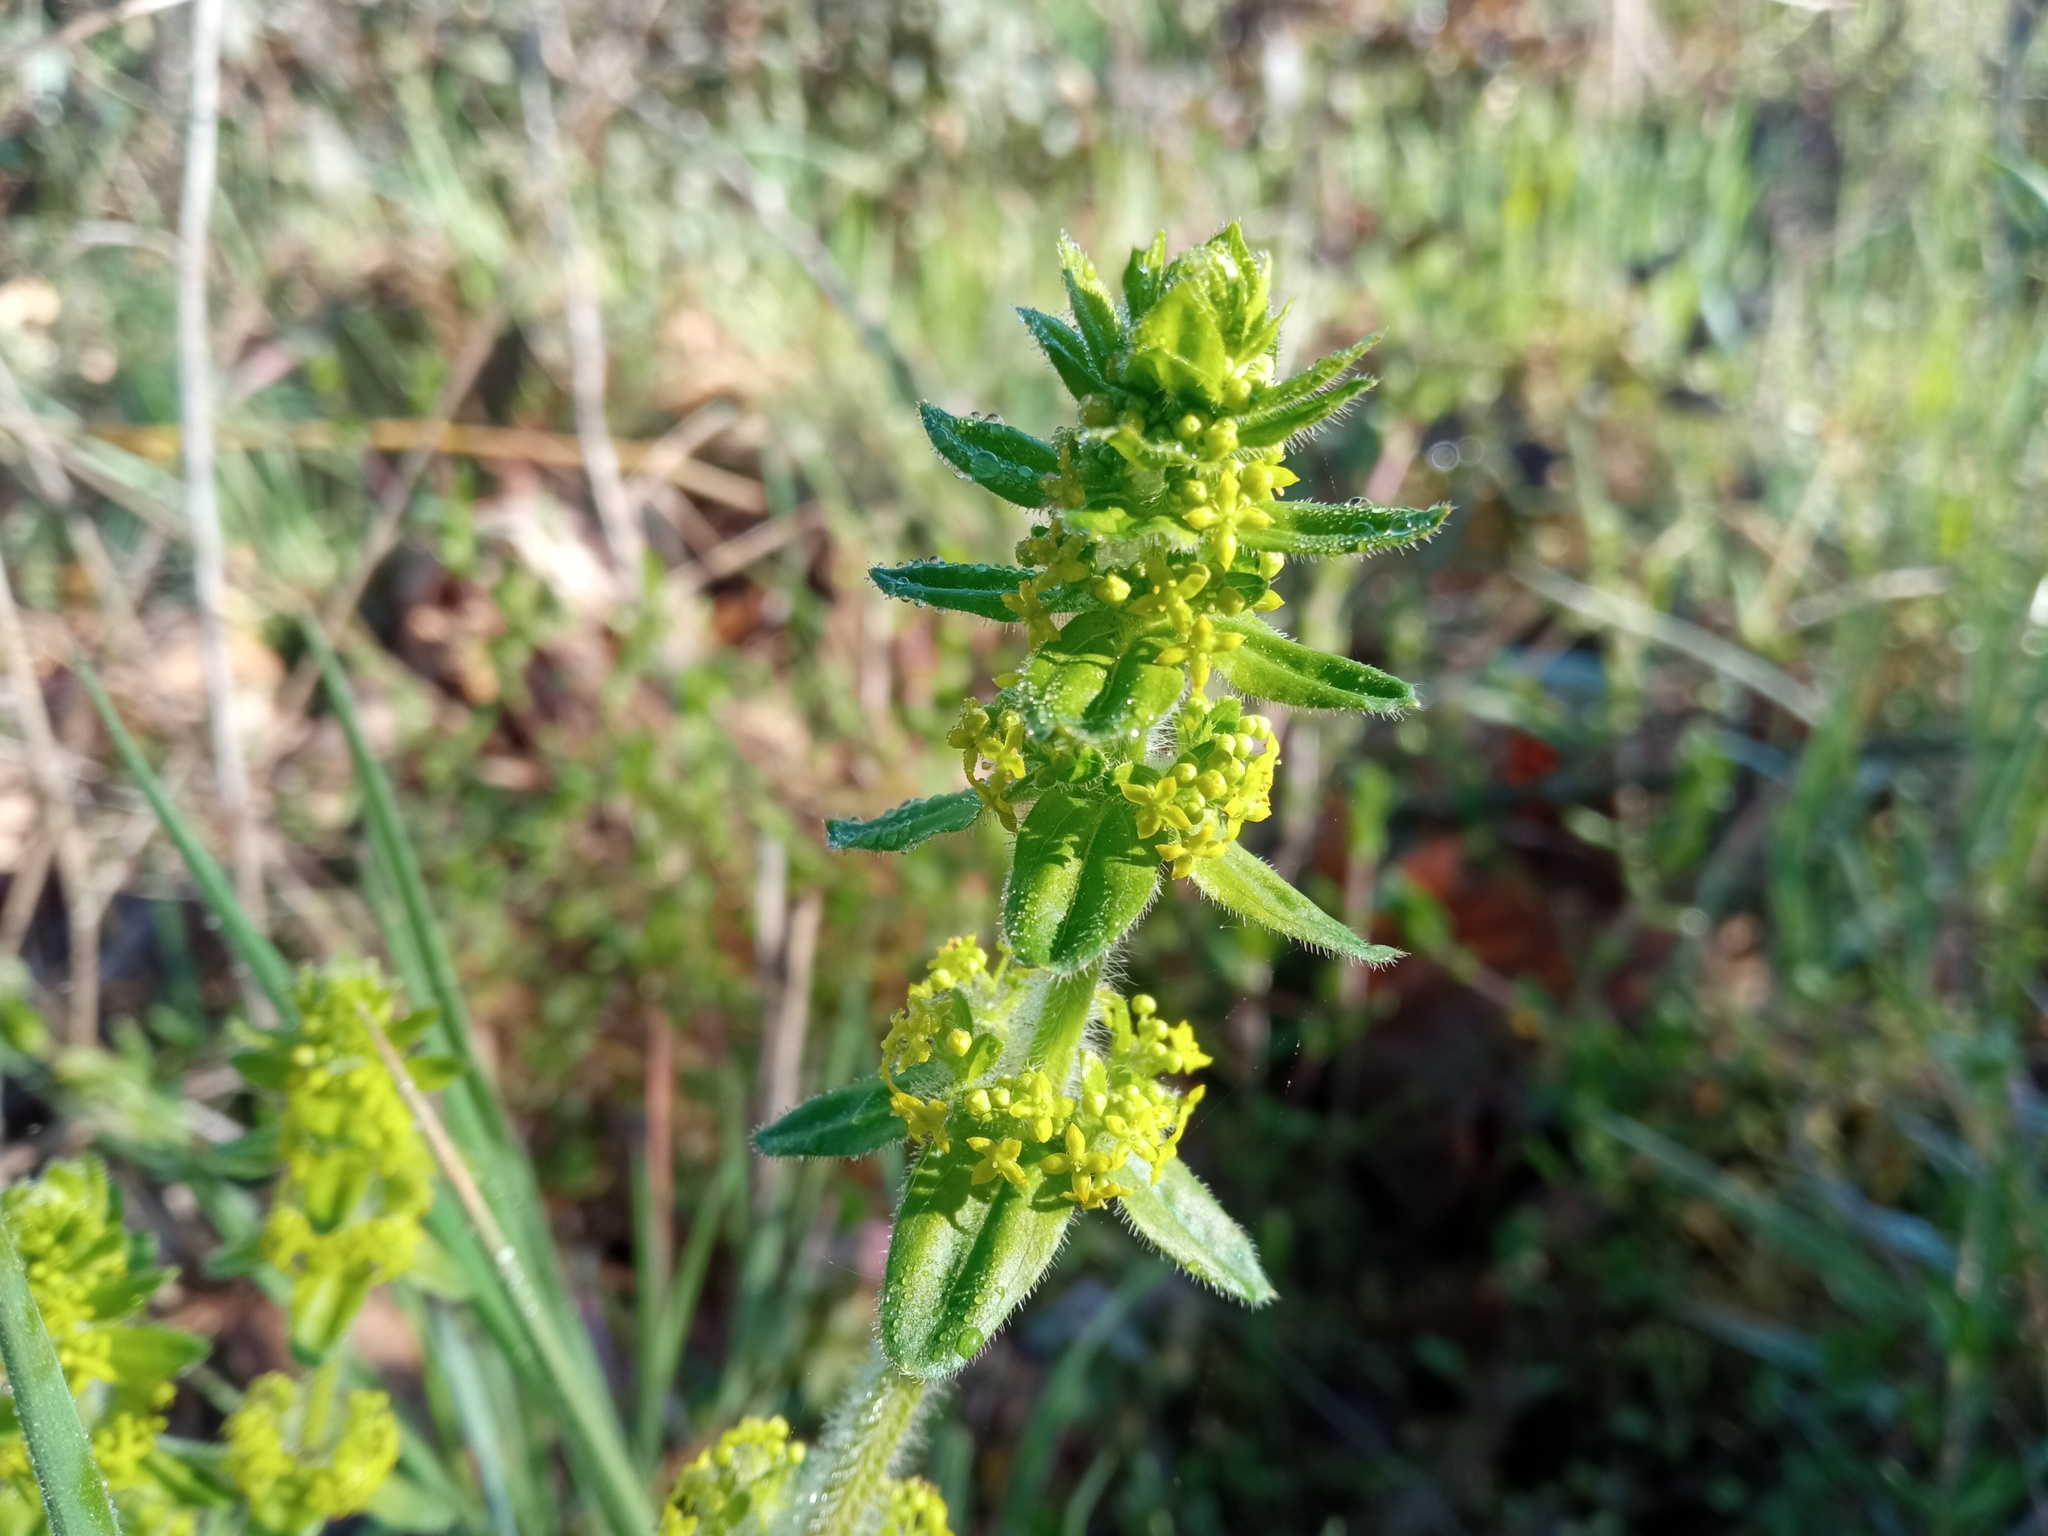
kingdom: Plantae
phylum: Tracheophyta
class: Magnoliopsida
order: Gentianales
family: Rubiaceae
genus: Cruciata
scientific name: Cruciata laevipes
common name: Crosswort
